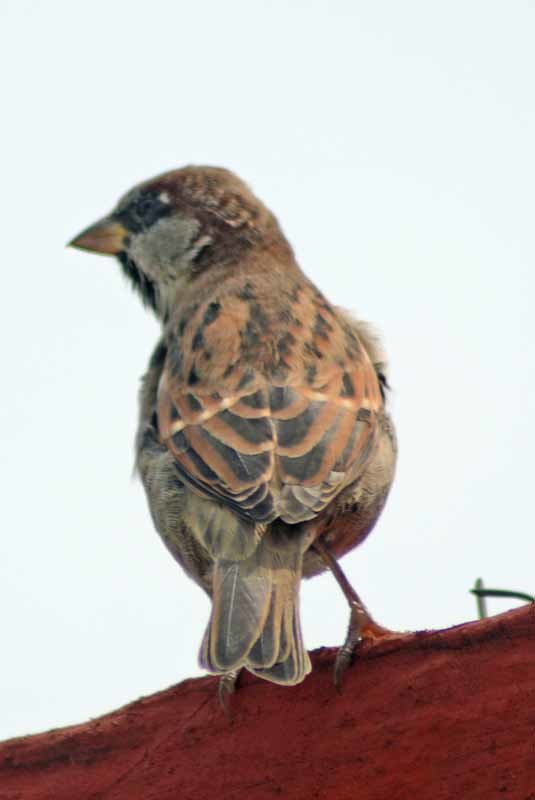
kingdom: Animalia
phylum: Chordata
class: Aves
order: Passeriformes
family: Passeridae
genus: Passer
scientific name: Passer domesticus
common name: House sparrow
